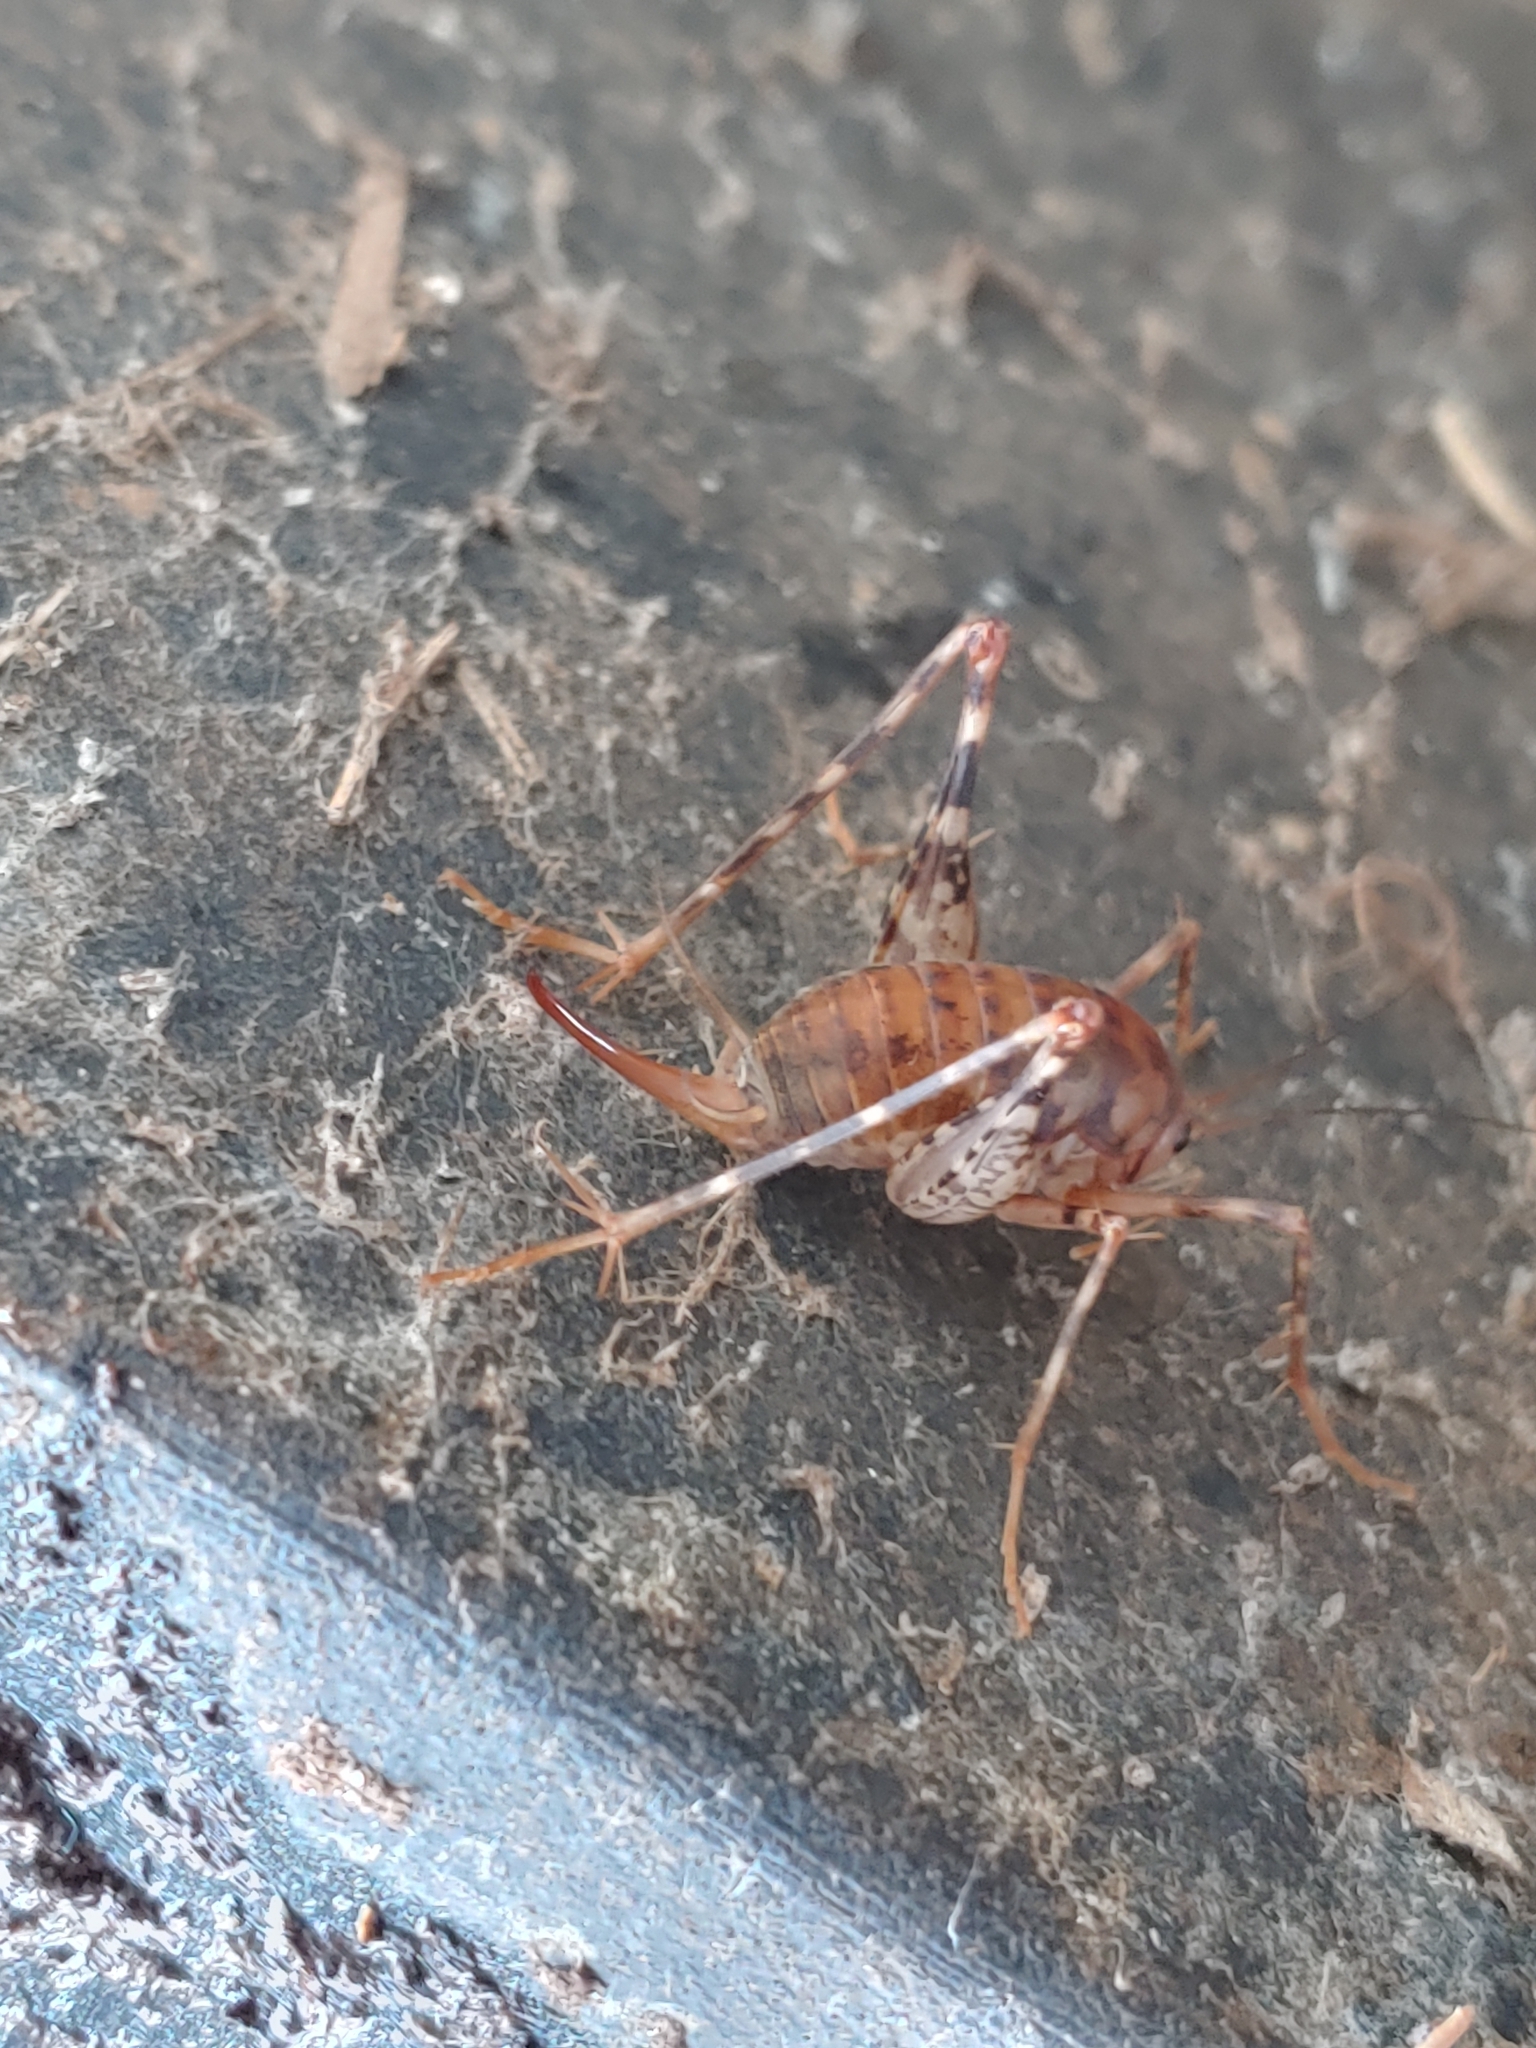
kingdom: Animalia
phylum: Arthropoda
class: Insecta
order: Orthoptera
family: Rhaphidophoridae
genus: Tachycines
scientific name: Tachycines asynamorus
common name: Greenhouse camel cricket
